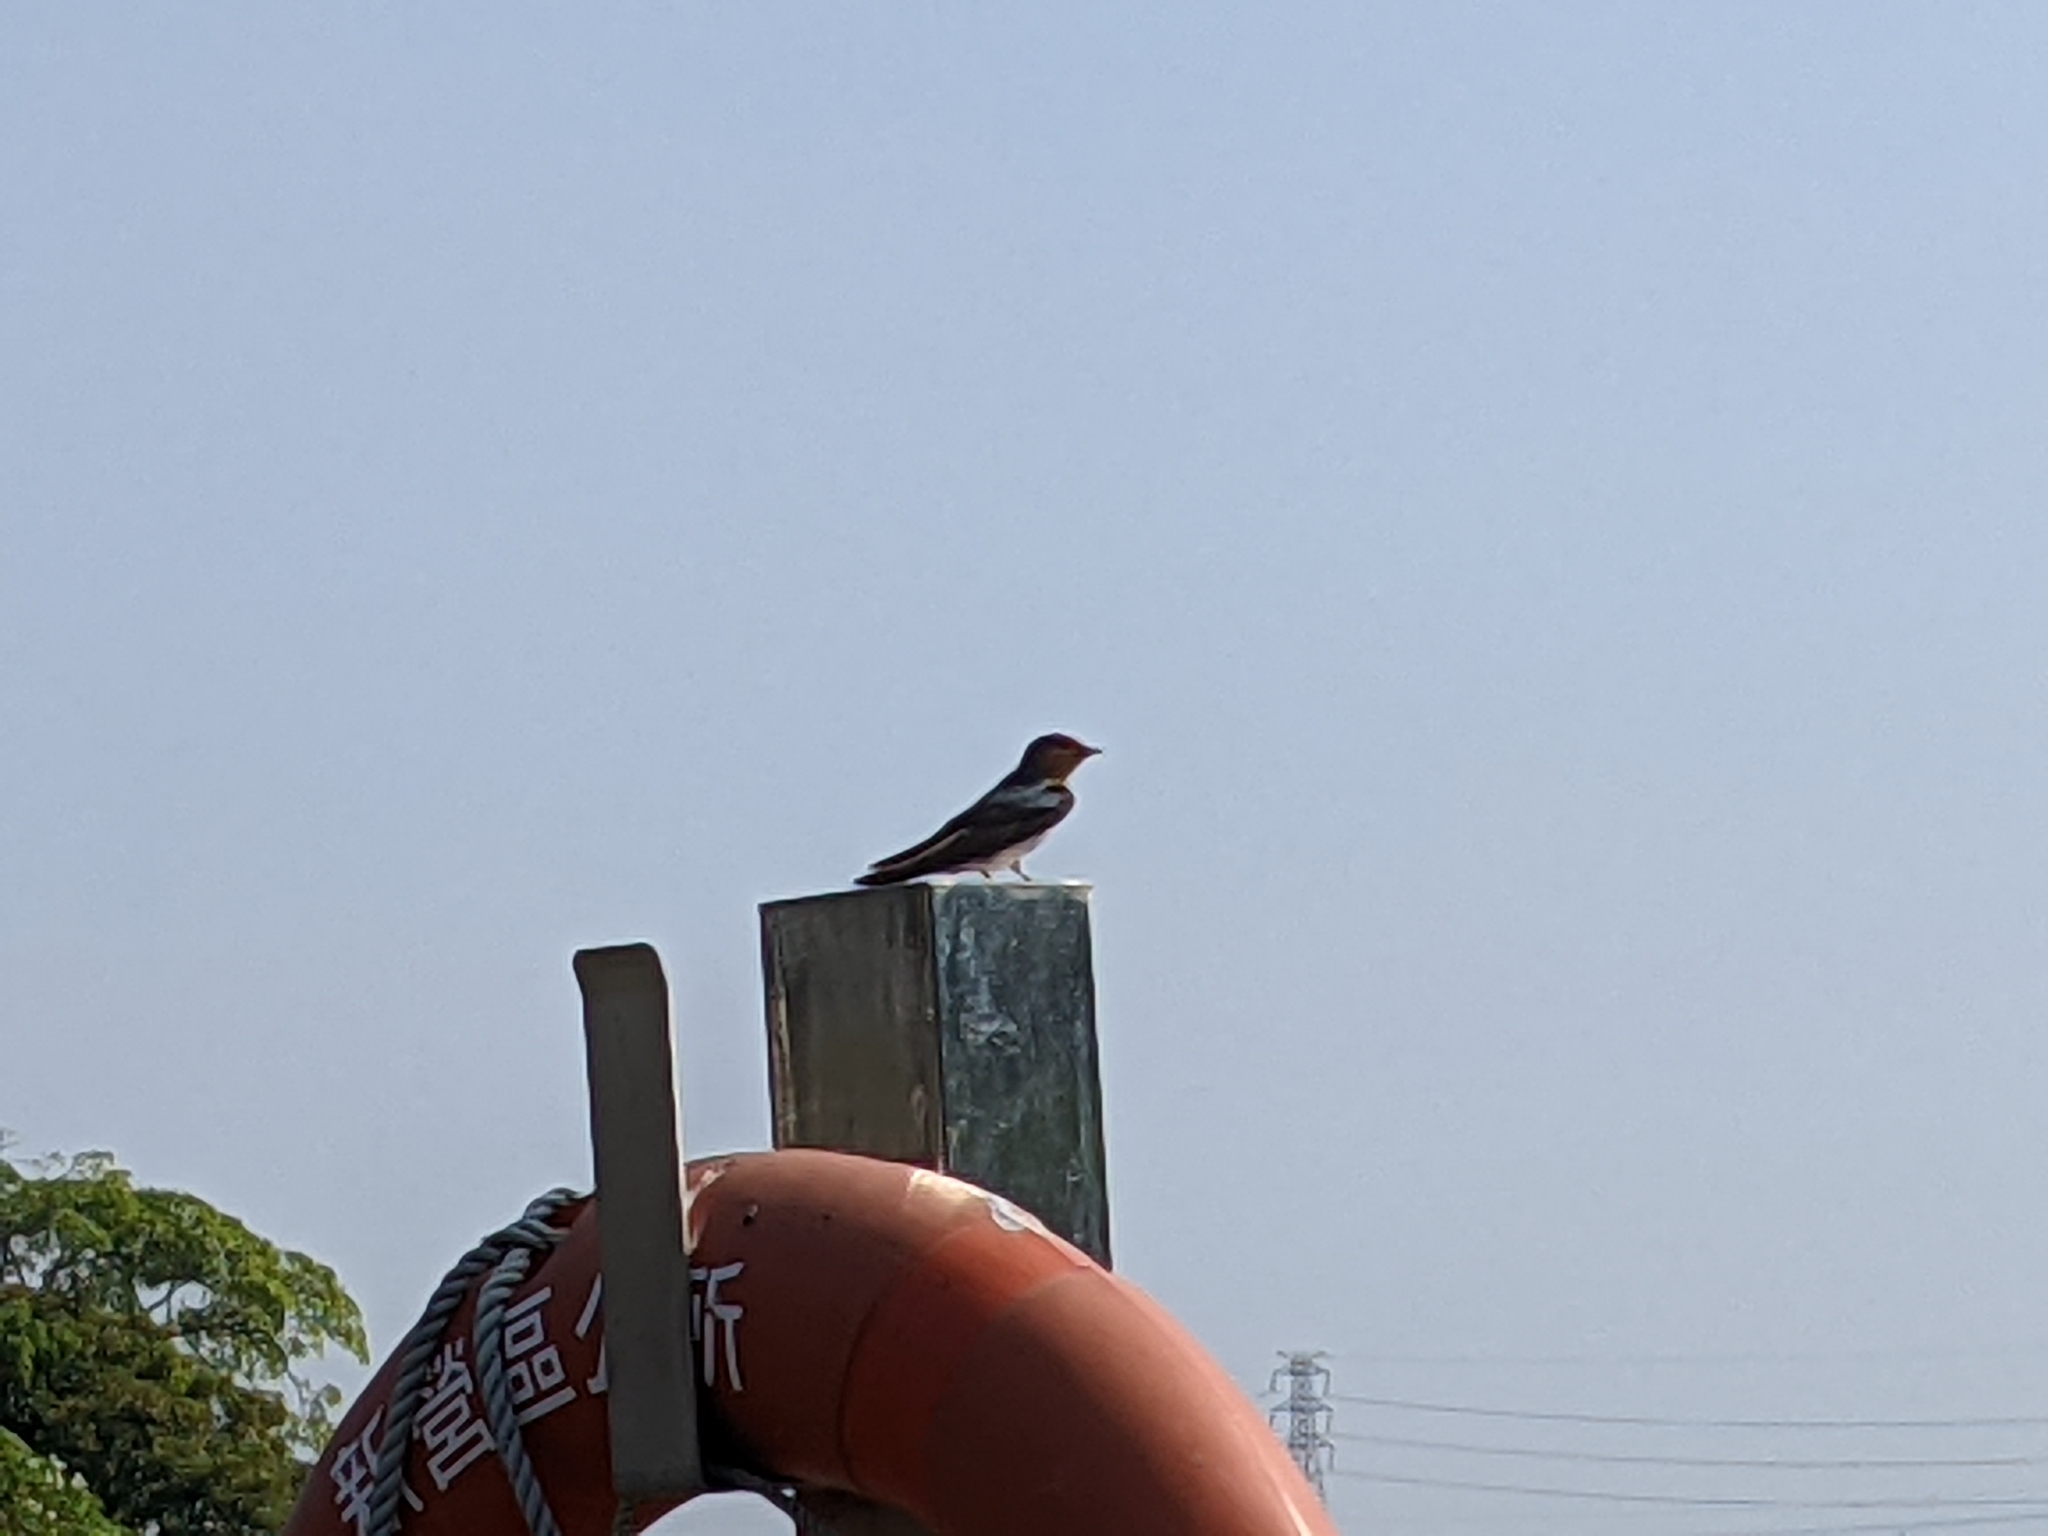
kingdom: Animalia
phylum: Chordata
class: Aves
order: Passeriformes
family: Hirundinidae
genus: Hirundo
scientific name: Hirundo tahitica
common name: Pacific swallow
